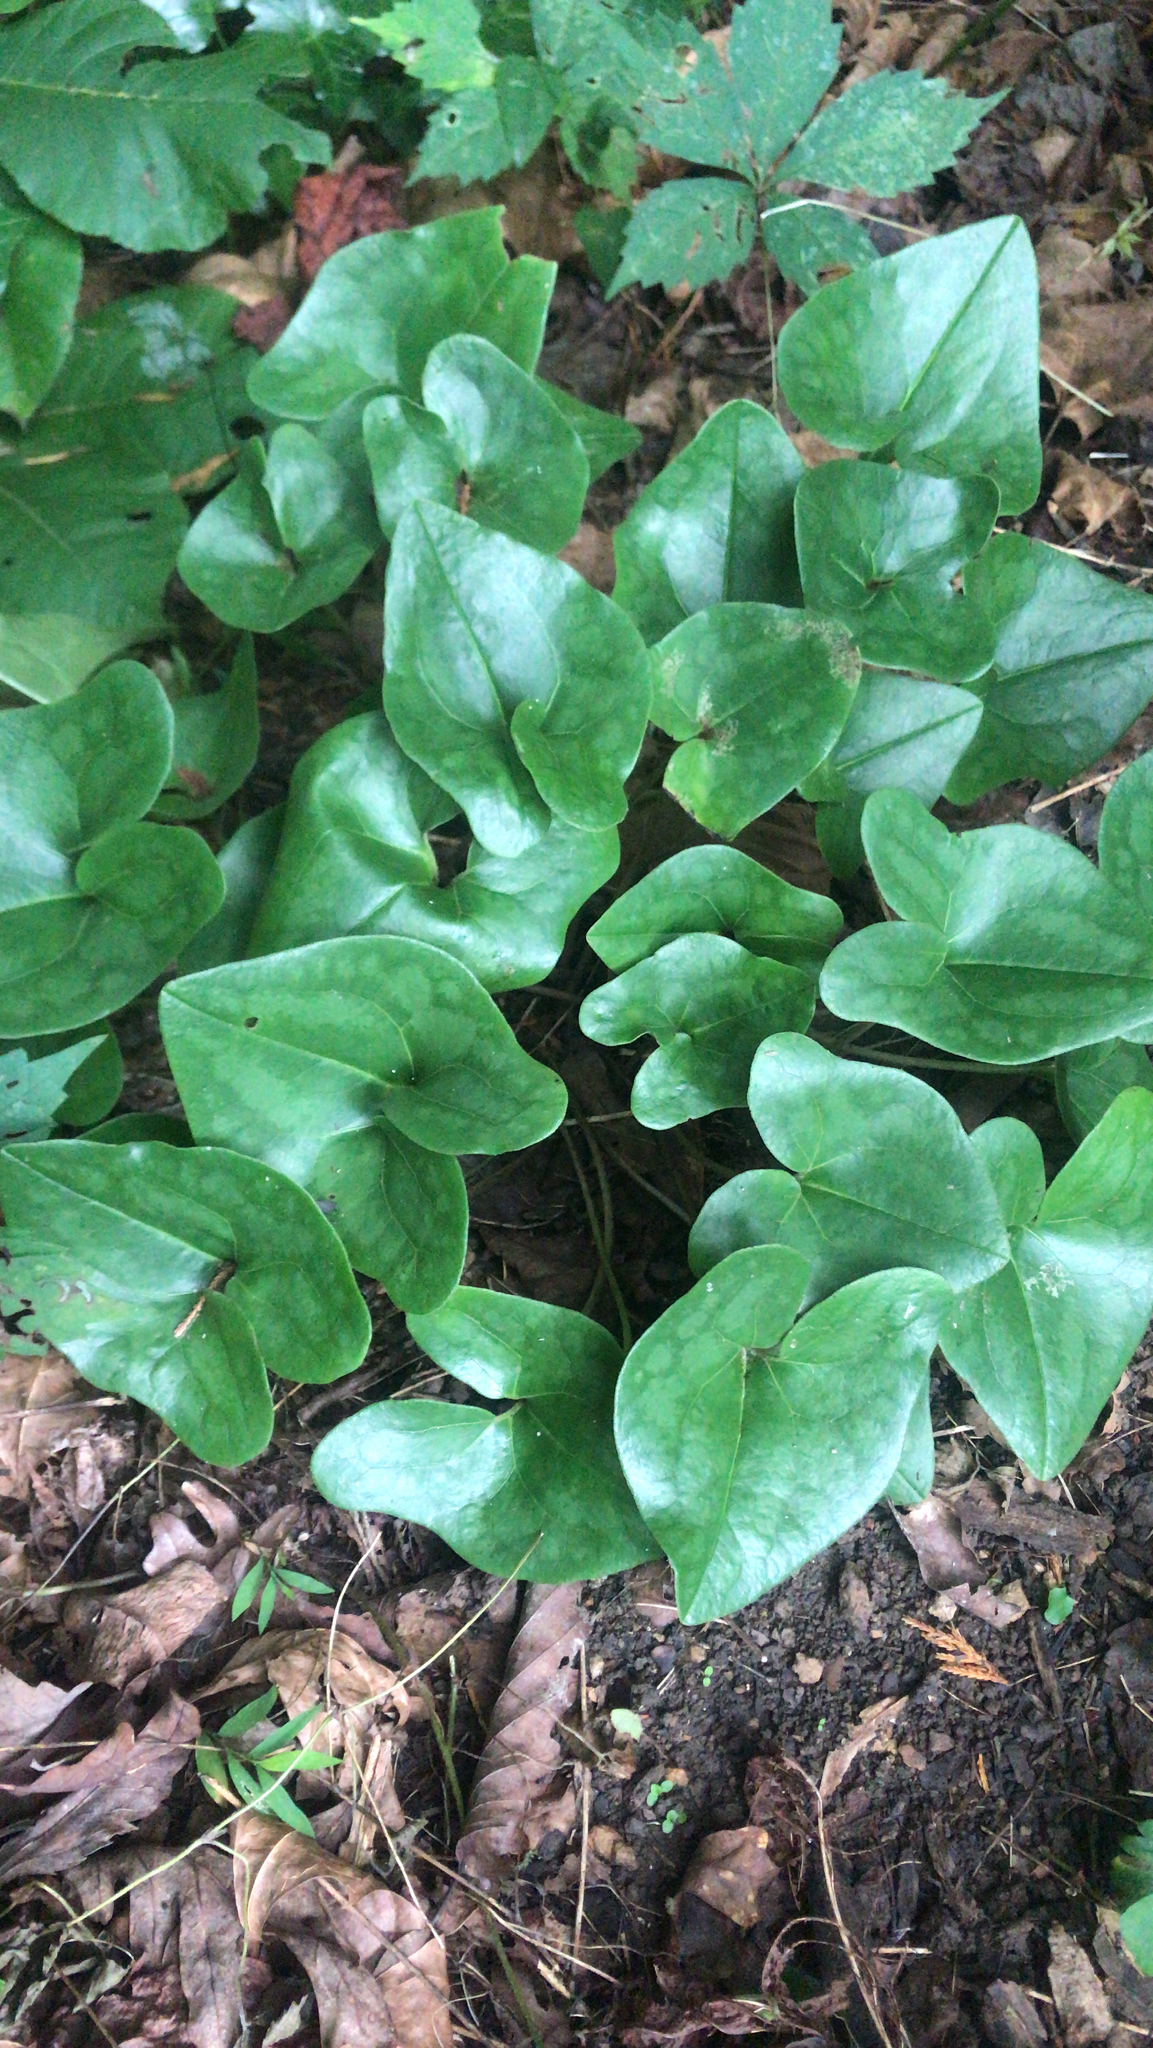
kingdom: Plantae
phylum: Tracheophyta
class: Magnoliopsida
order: Piperales
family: Aristolochiaceae
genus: Hexastylis
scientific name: Hexastylis arifolia
